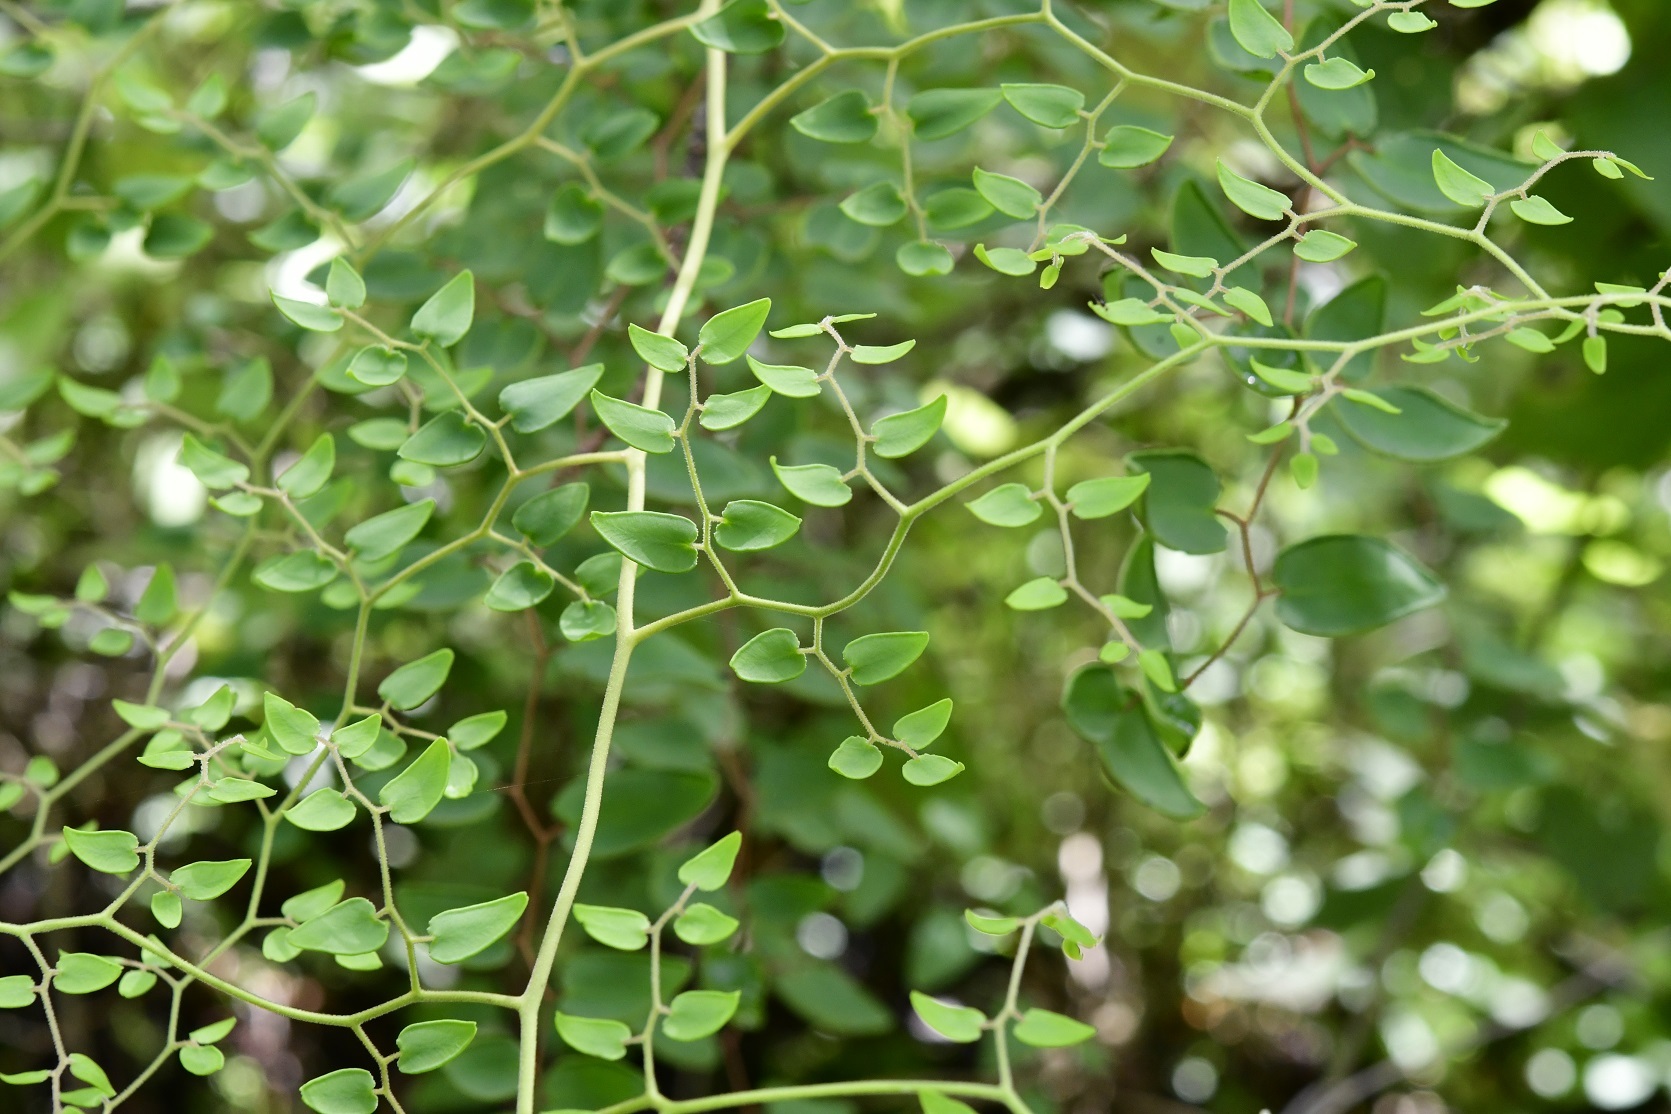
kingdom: Plantae
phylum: Tracheophyta
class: Polypodiopsida
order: Polypodiales
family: Pteridaceae
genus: Pellaea
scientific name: Pellaea ovata
